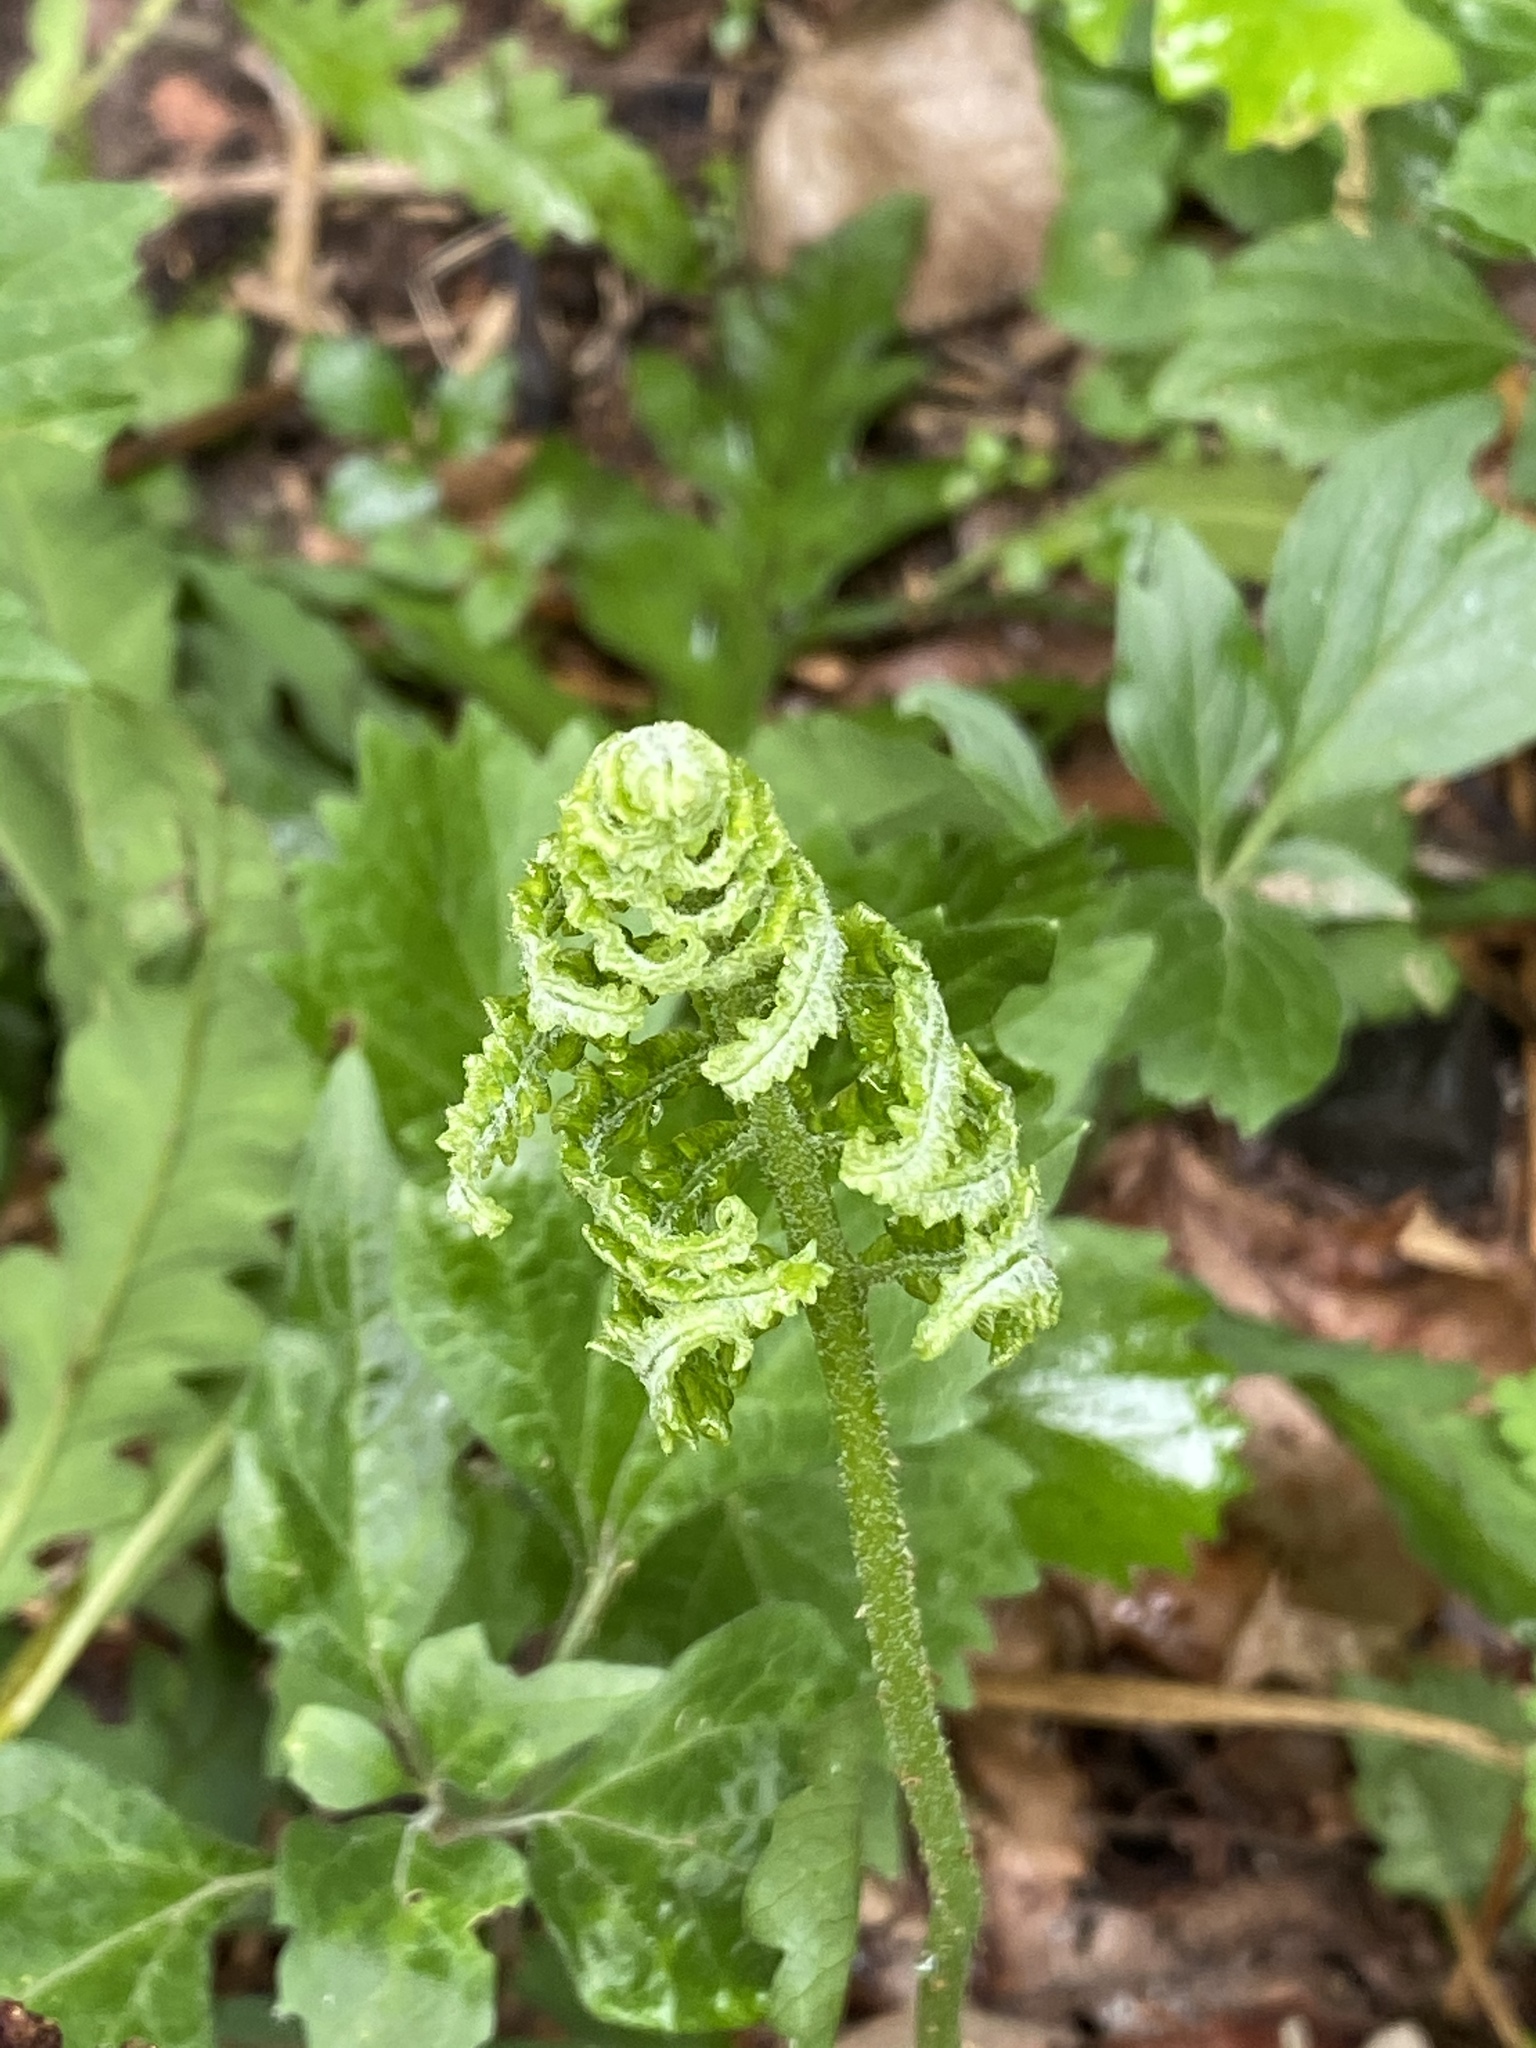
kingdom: Plantae
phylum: Tracheophyta
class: Polypodiopsida
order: Polypodiales
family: Onocleaceae
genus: Onoclea
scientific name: Onoclea sensibilis
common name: Sensitive fern
